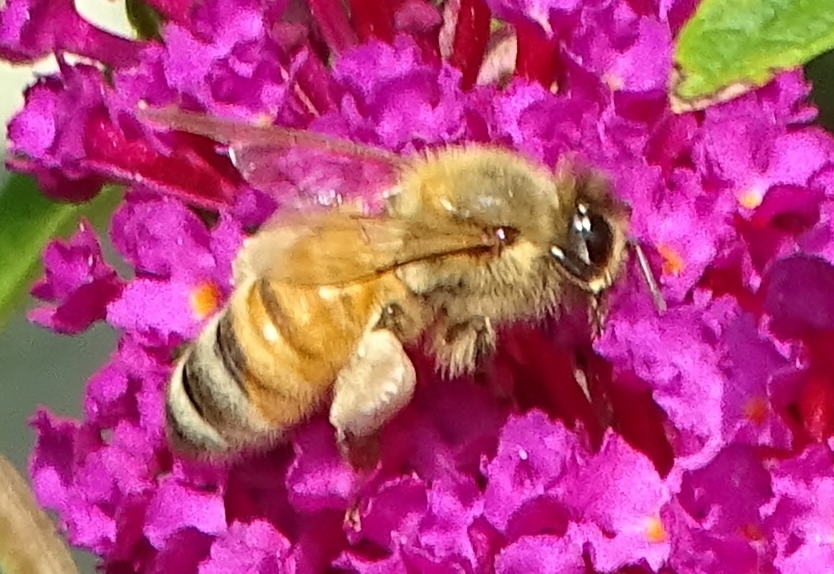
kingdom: Animalia
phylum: Arthropoda
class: Insecta
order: Hymenoptera
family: Apidae
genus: Apis
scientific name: Apis mellifera
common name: Honey bee
